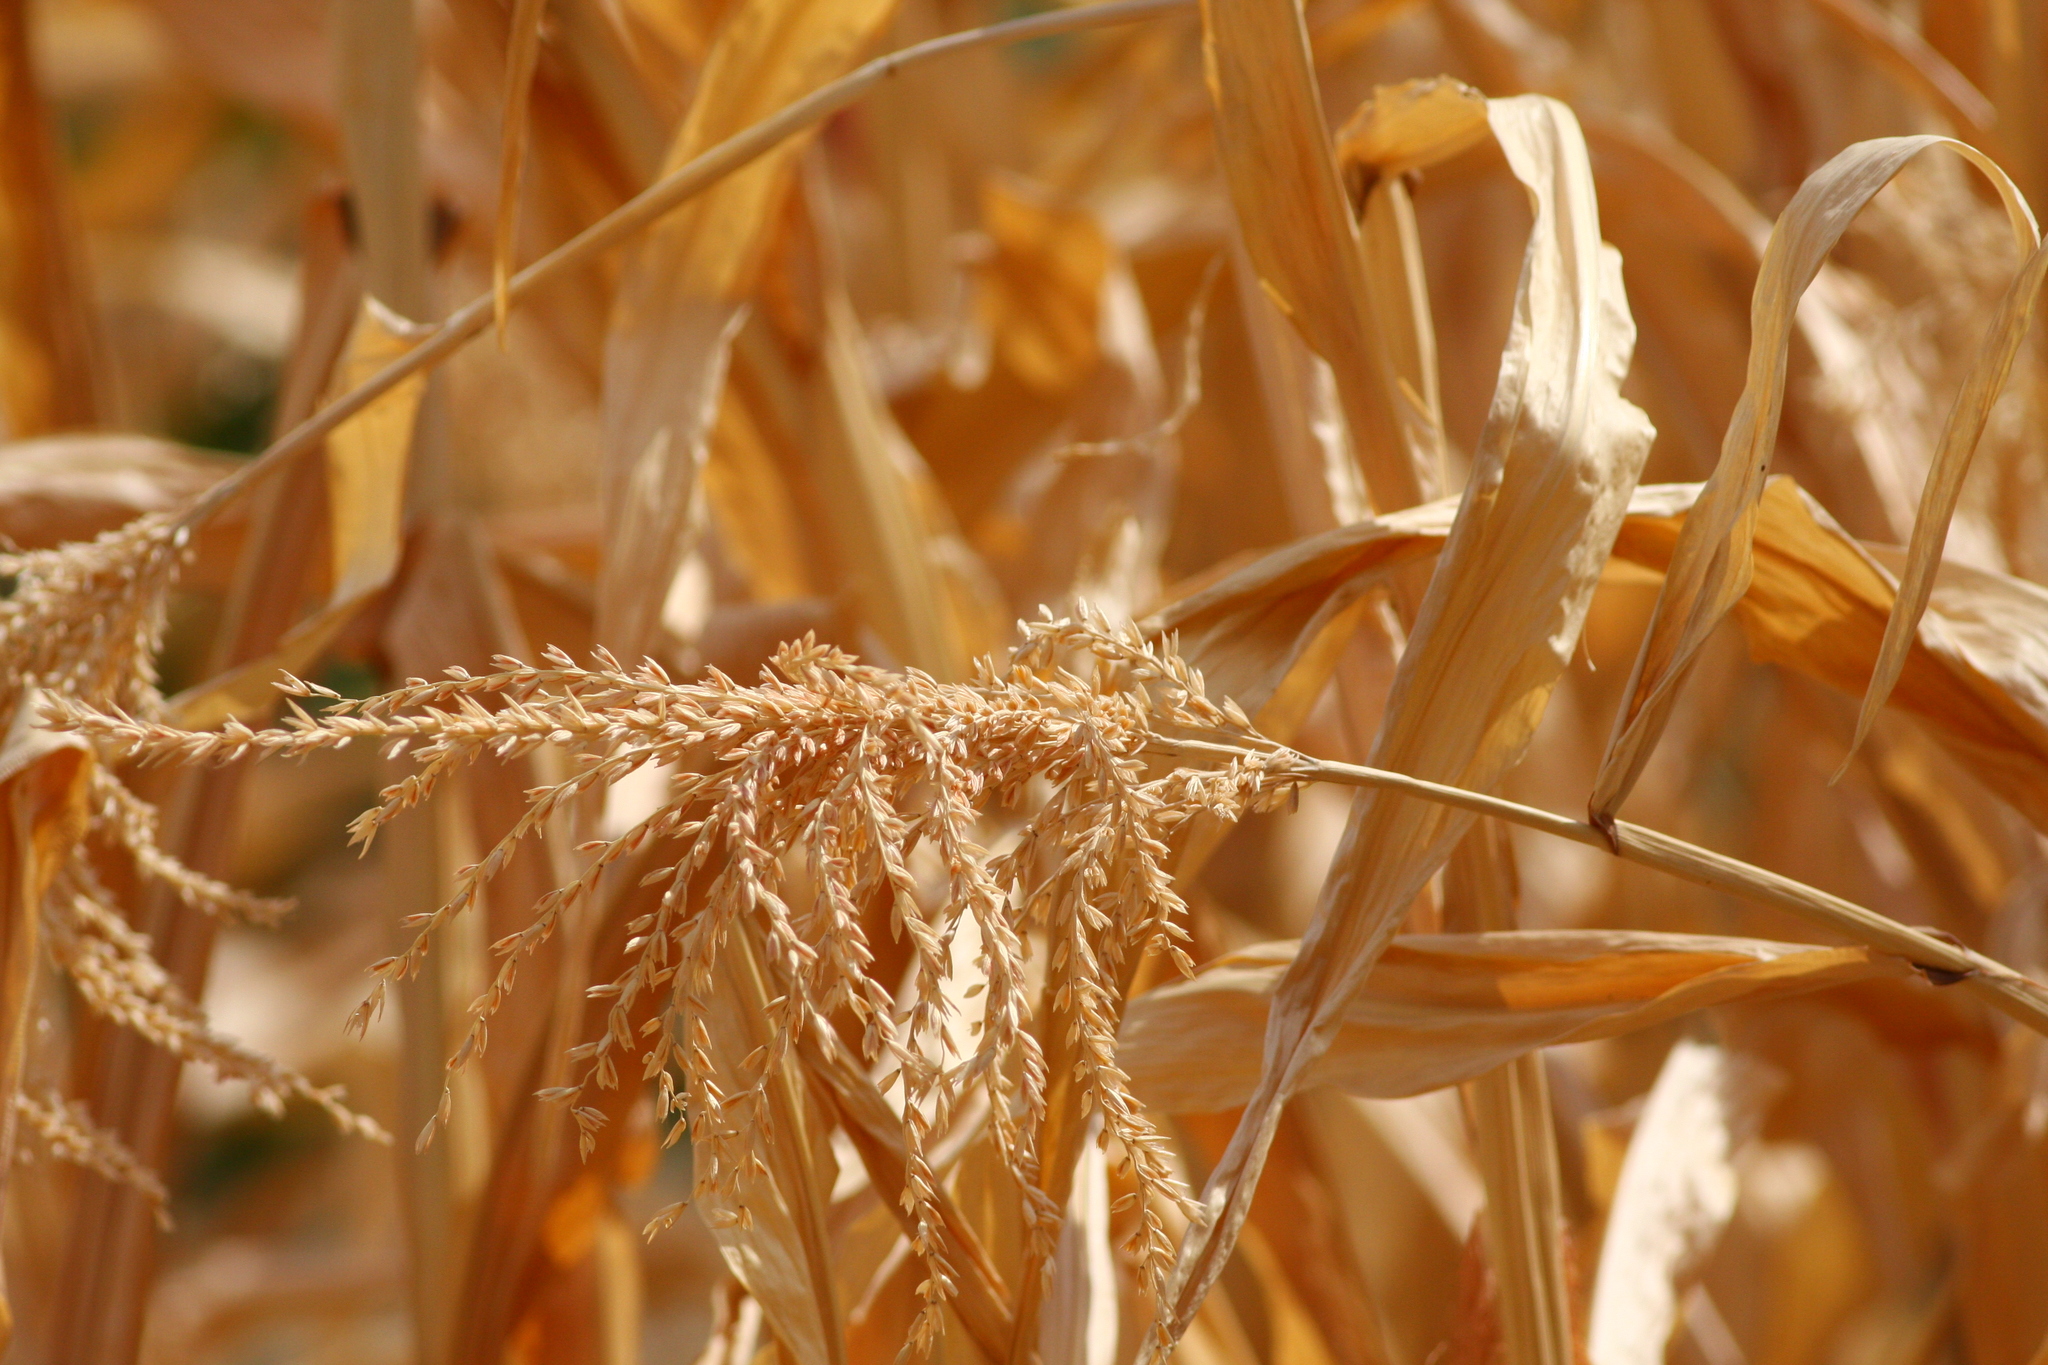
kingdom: Plantae
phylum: Tracheophyta
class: Liliopsida
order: Poales
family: Poaceae
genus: Zea
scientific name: Zea mays
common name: Maize
